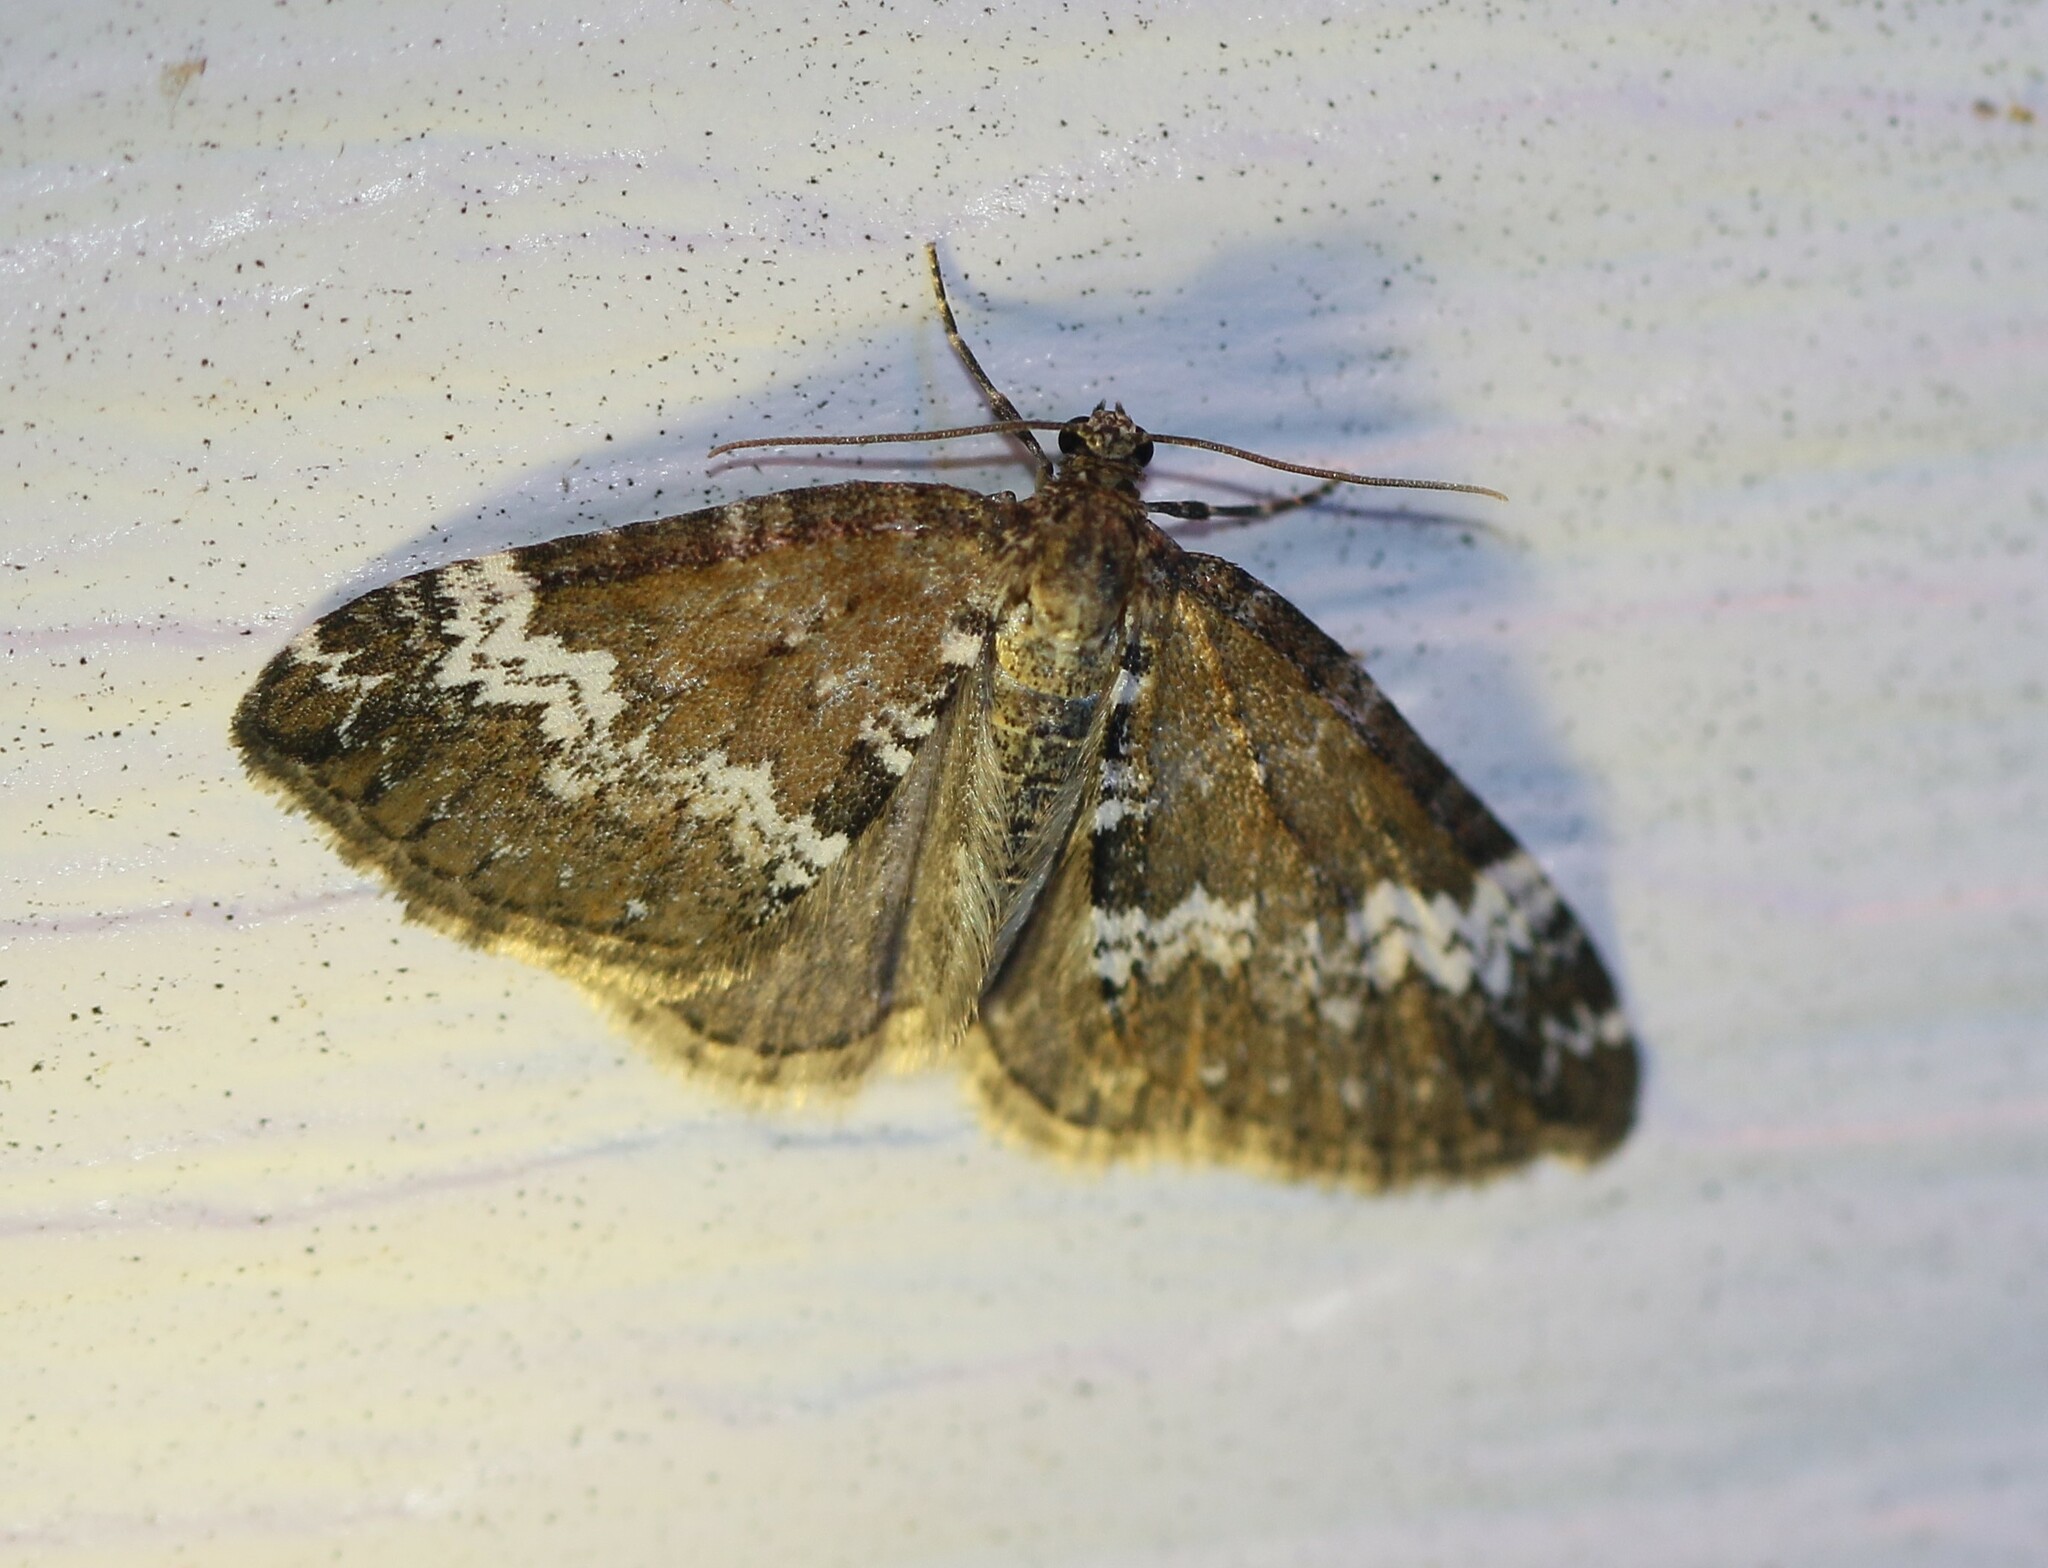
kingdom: Animalia
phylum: Arthropoda
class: Insecta
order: Lepidoptera
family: Geometridae
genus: Perizoma
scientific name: Perizoma alchemillata
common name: Small rivulet
